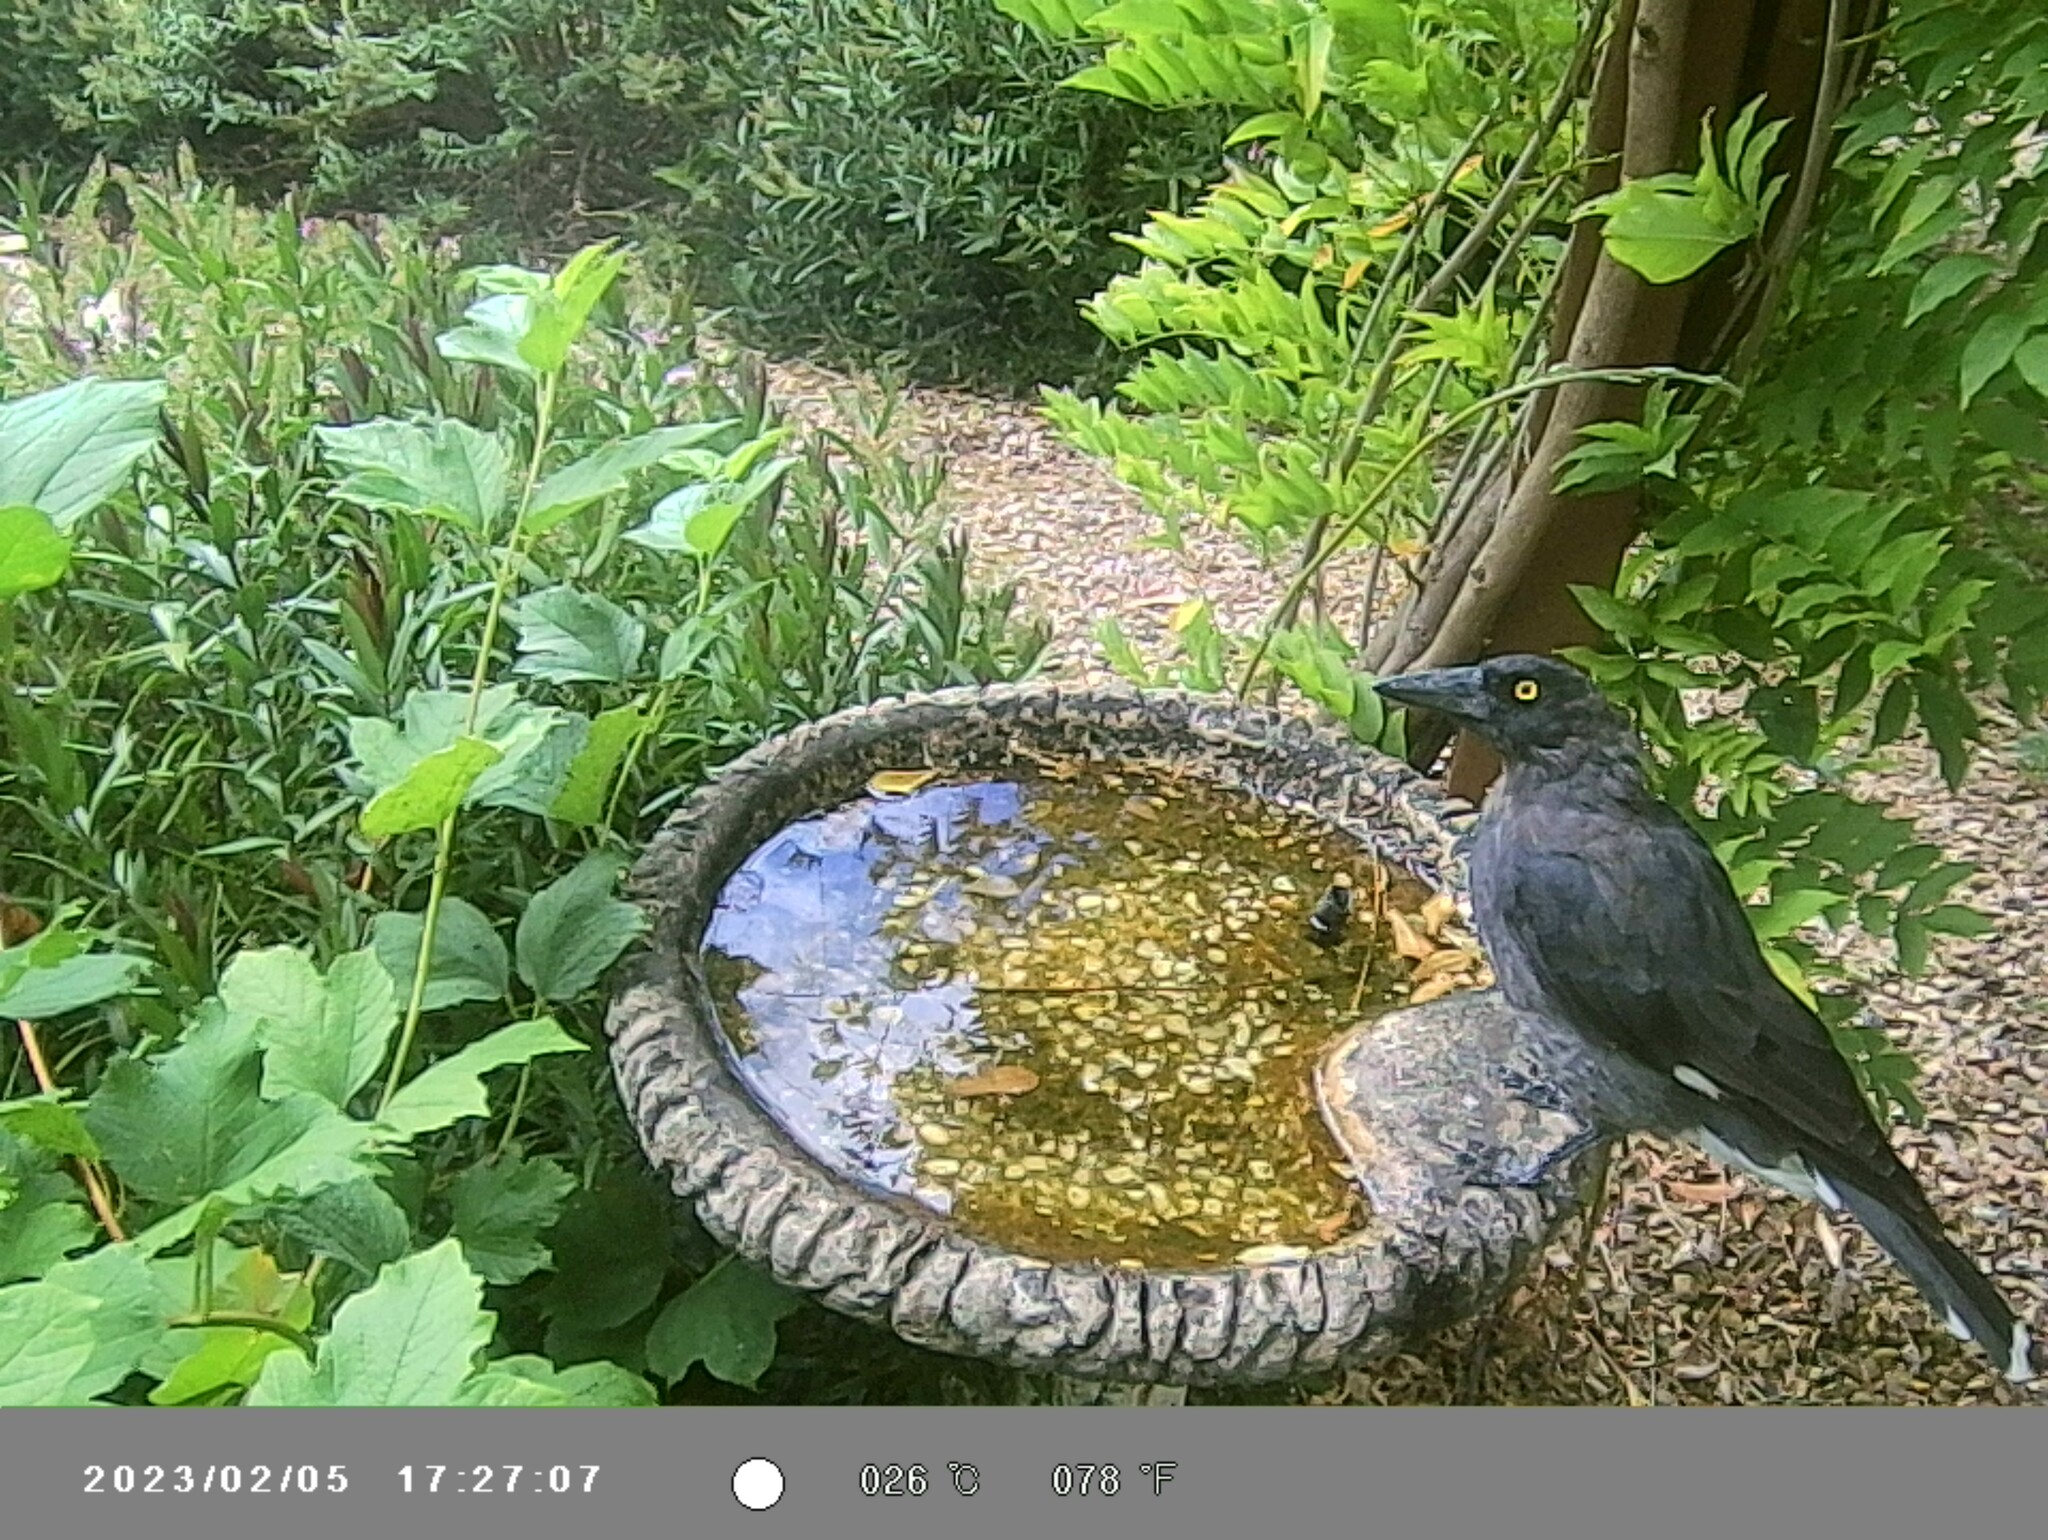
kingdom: Animalia
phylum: Chordata
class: Aves
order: Passeriformes
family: Cracticidae
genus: Strepera
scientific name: Strepera graculina
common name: Pied currawong
